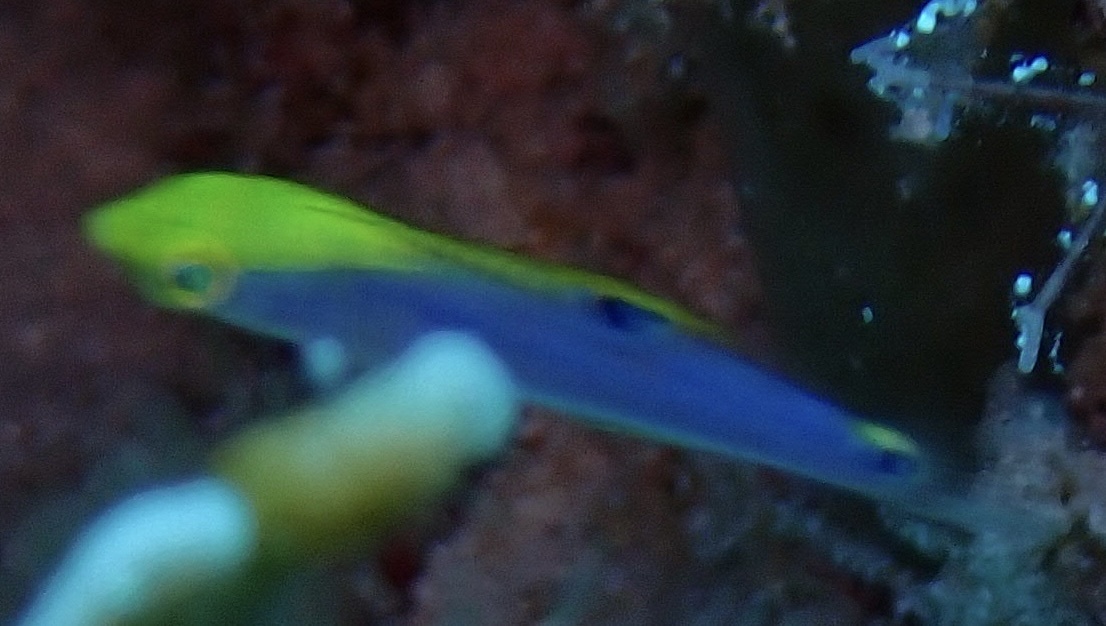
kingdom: Animalia
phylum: Chordata
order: Perciformes
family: Labridae
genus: Halichoeres
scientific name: Halichoeres cyanocephalus
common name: Yellowcheek wrasse
